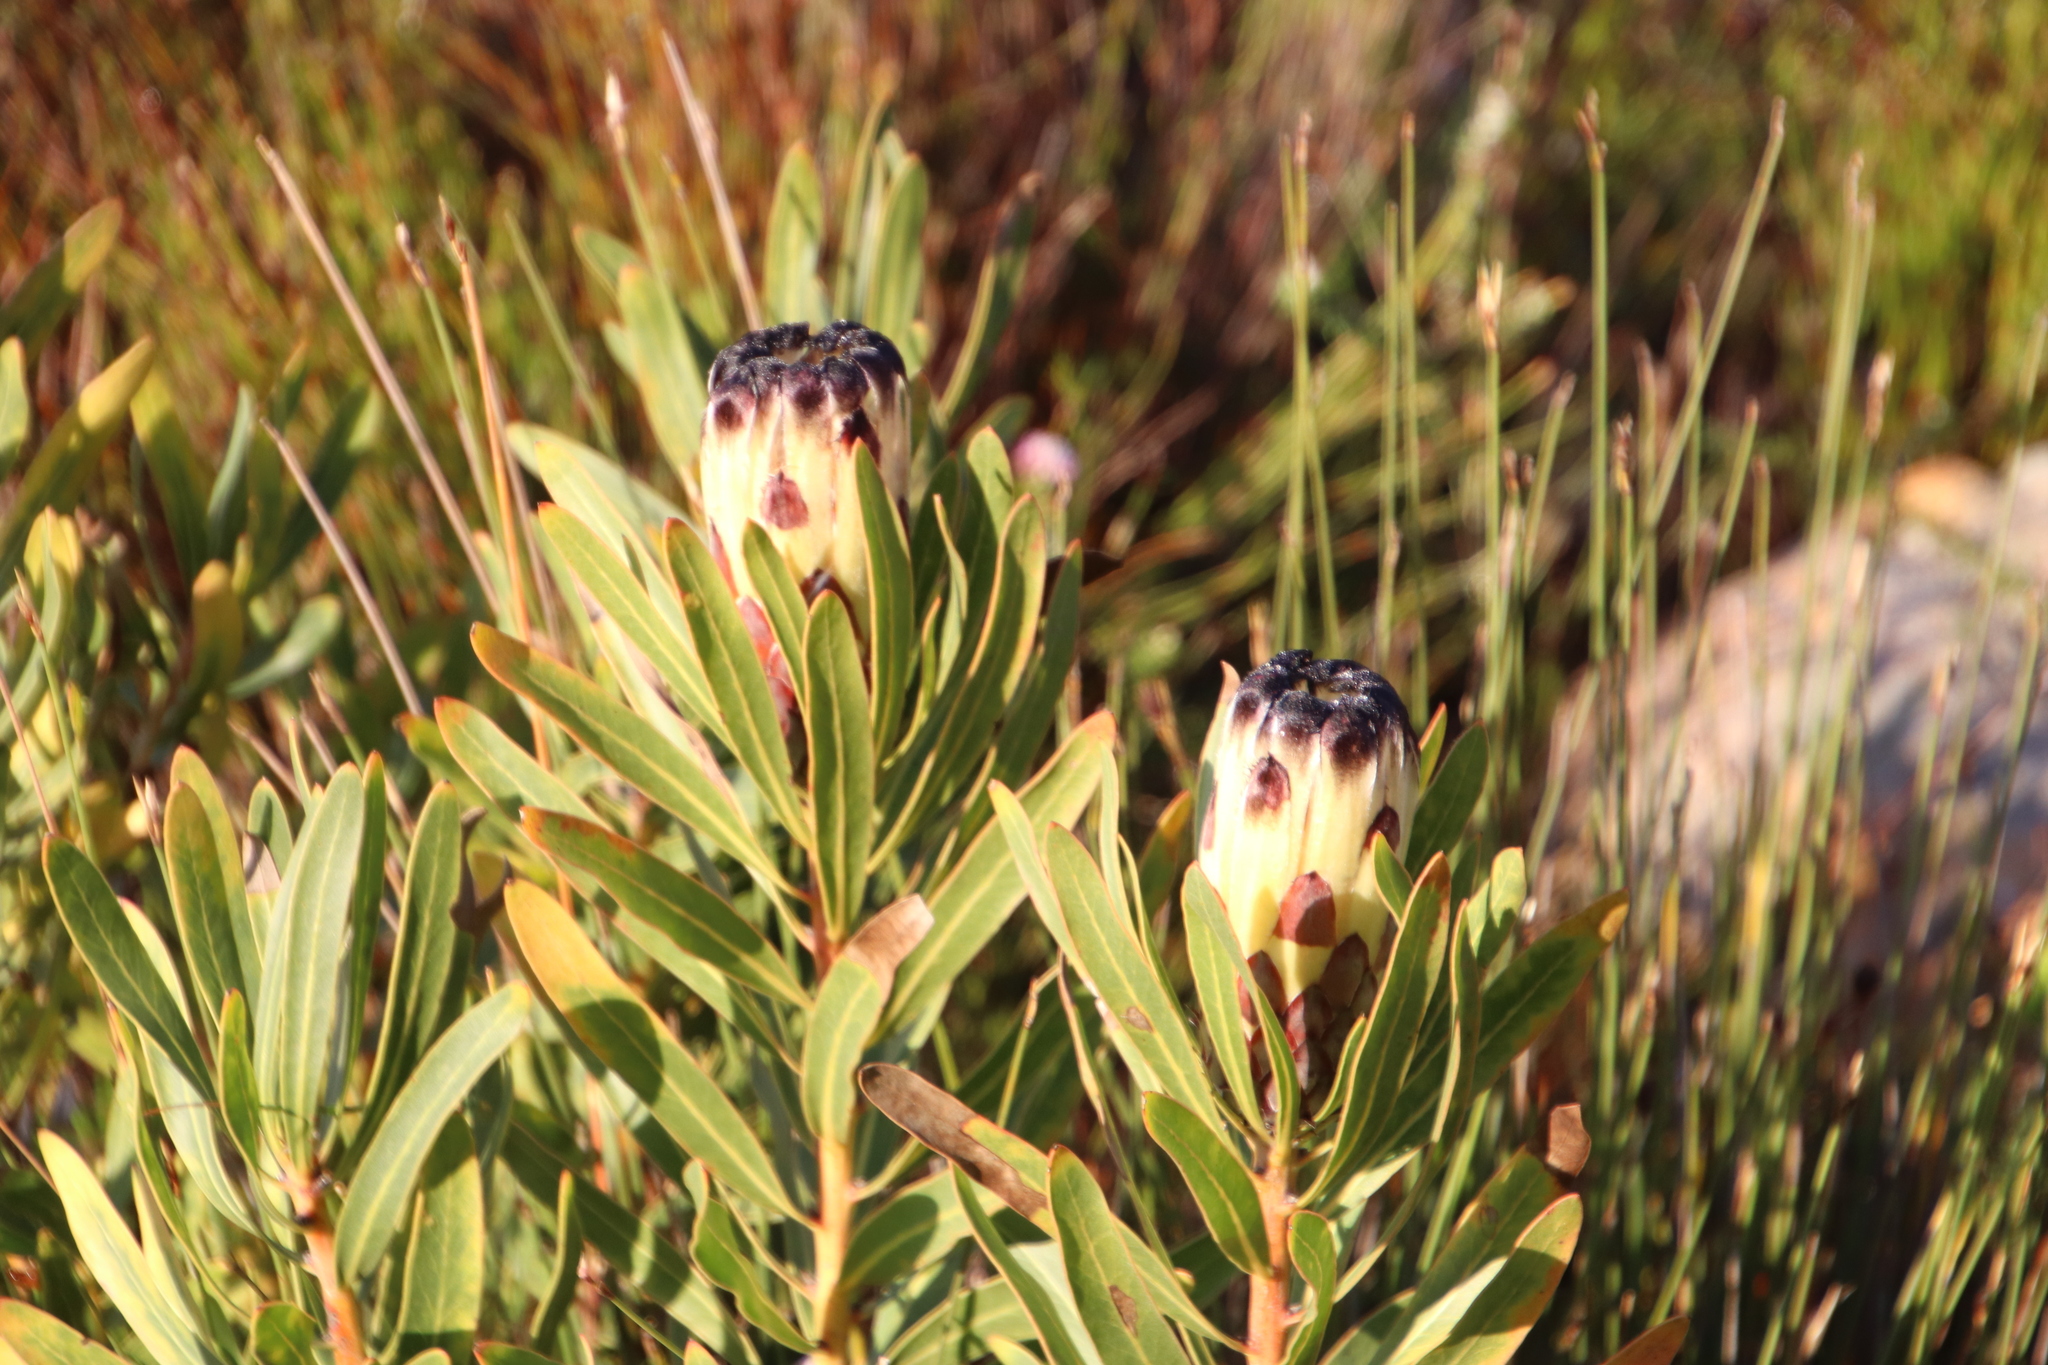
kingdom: Plantae
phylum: Tracheophyta
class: Magnoliopsida
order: Proteales
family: Proteaceae
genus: Protea
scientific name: Protea lepidocarpodendron
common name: Black-bearded protea
